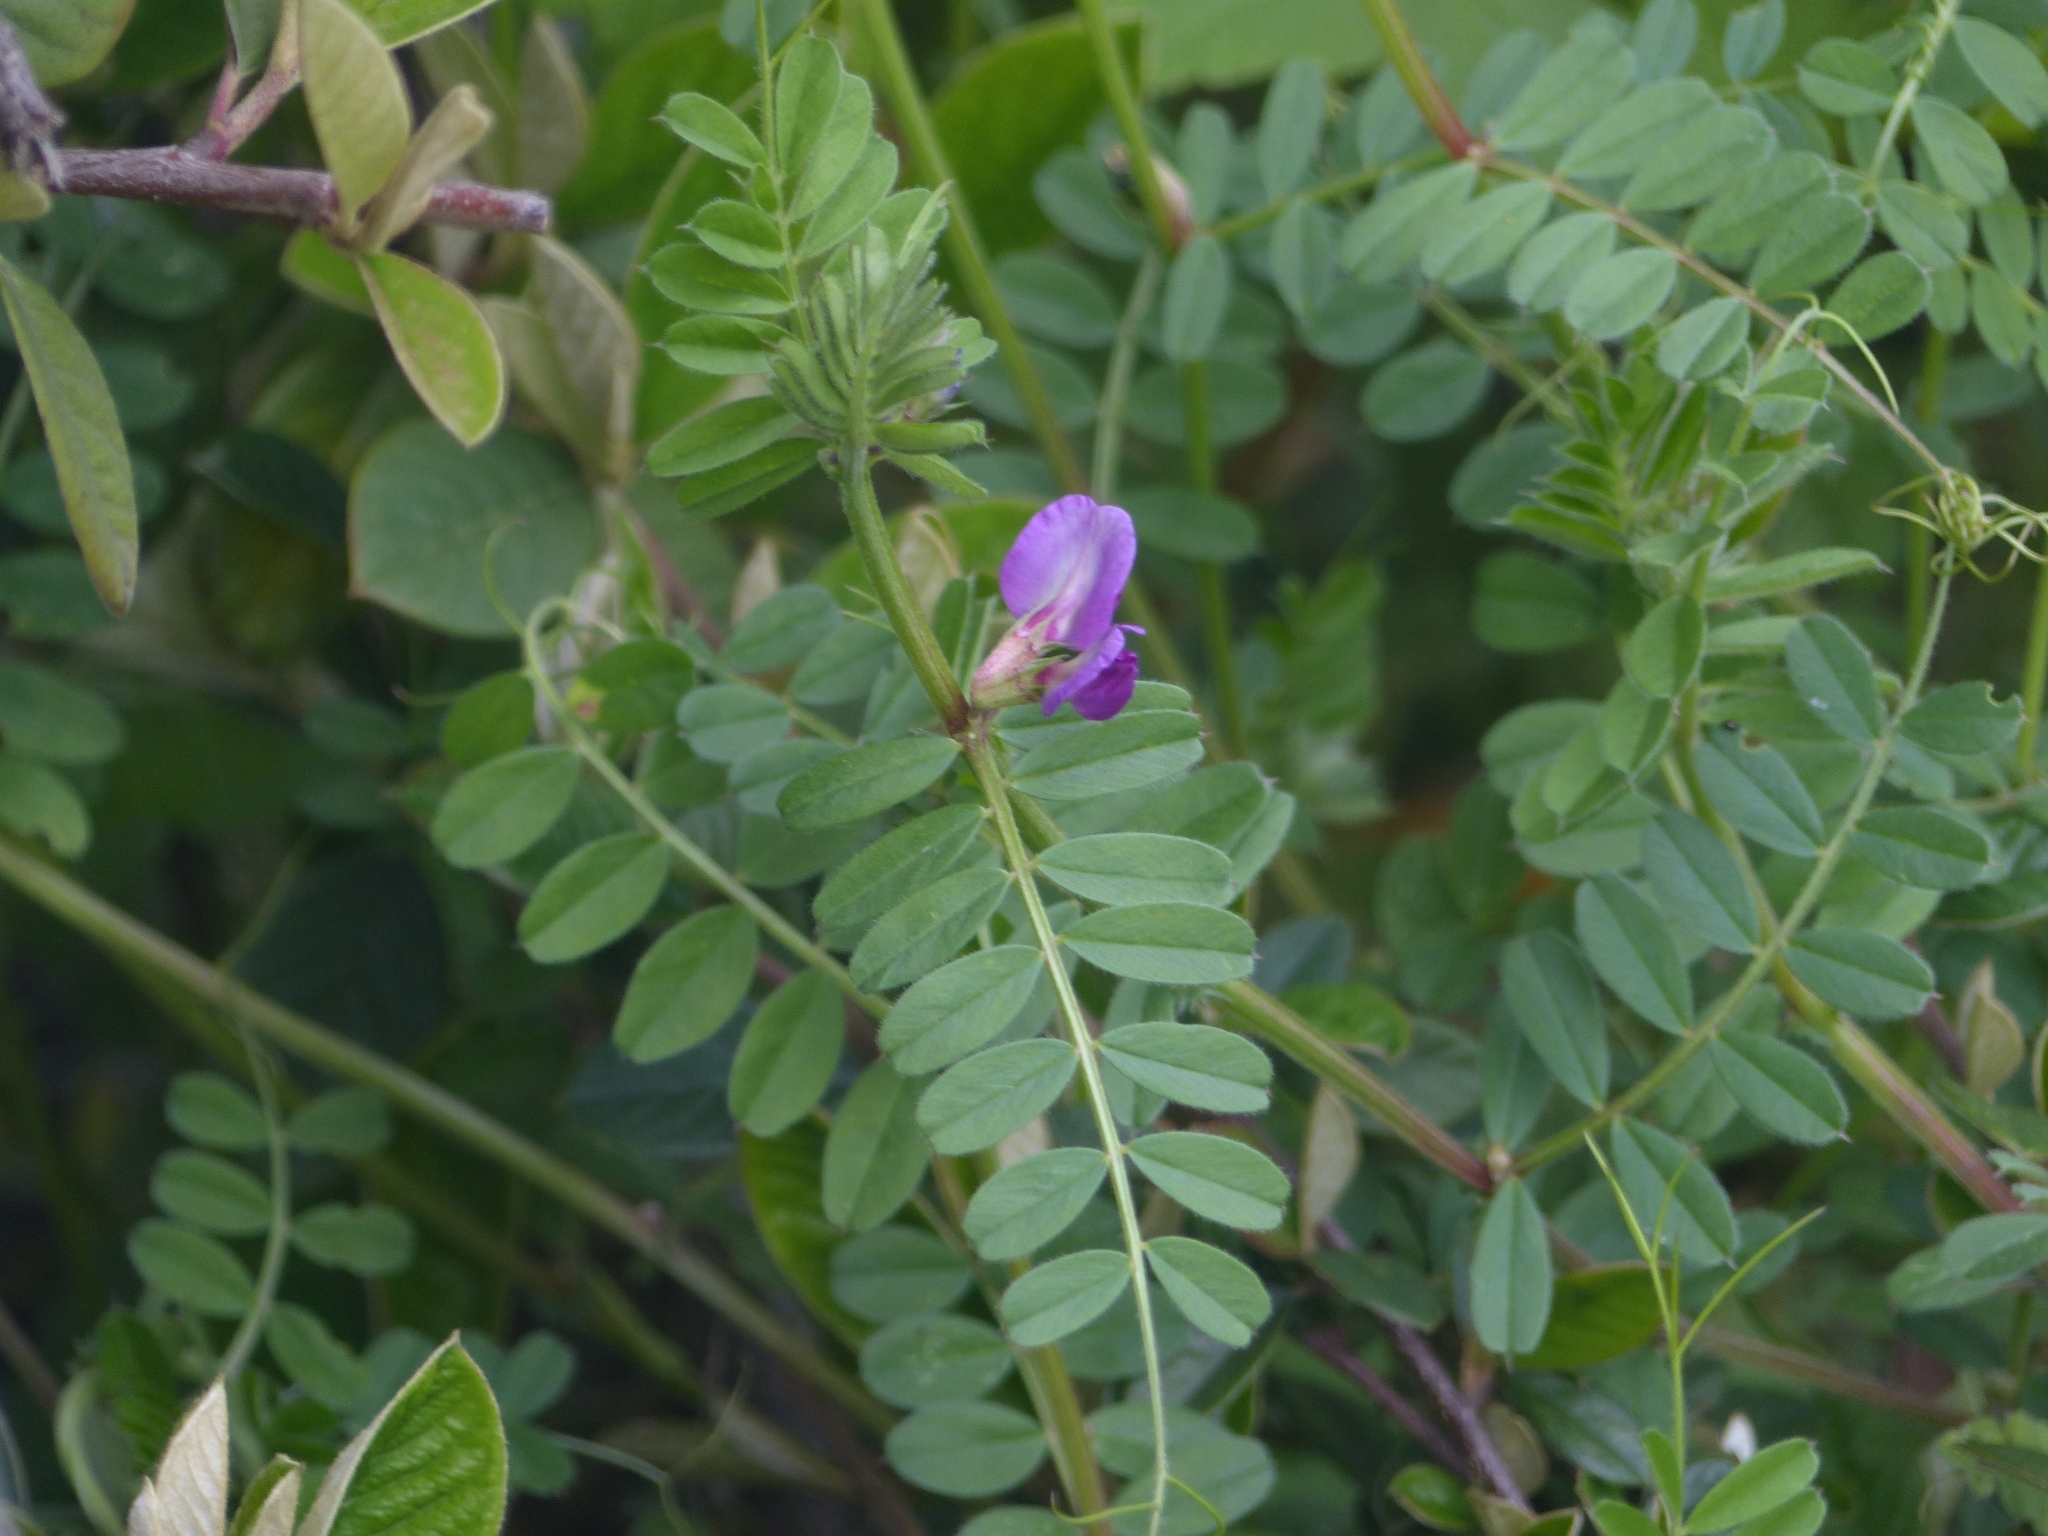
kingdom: Plantae
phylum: Tracheophyta
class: Magnoliopsida
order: Fabales
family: Fabaceae
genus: Vicia
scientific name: Vicia sativa
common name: Garden vetch
